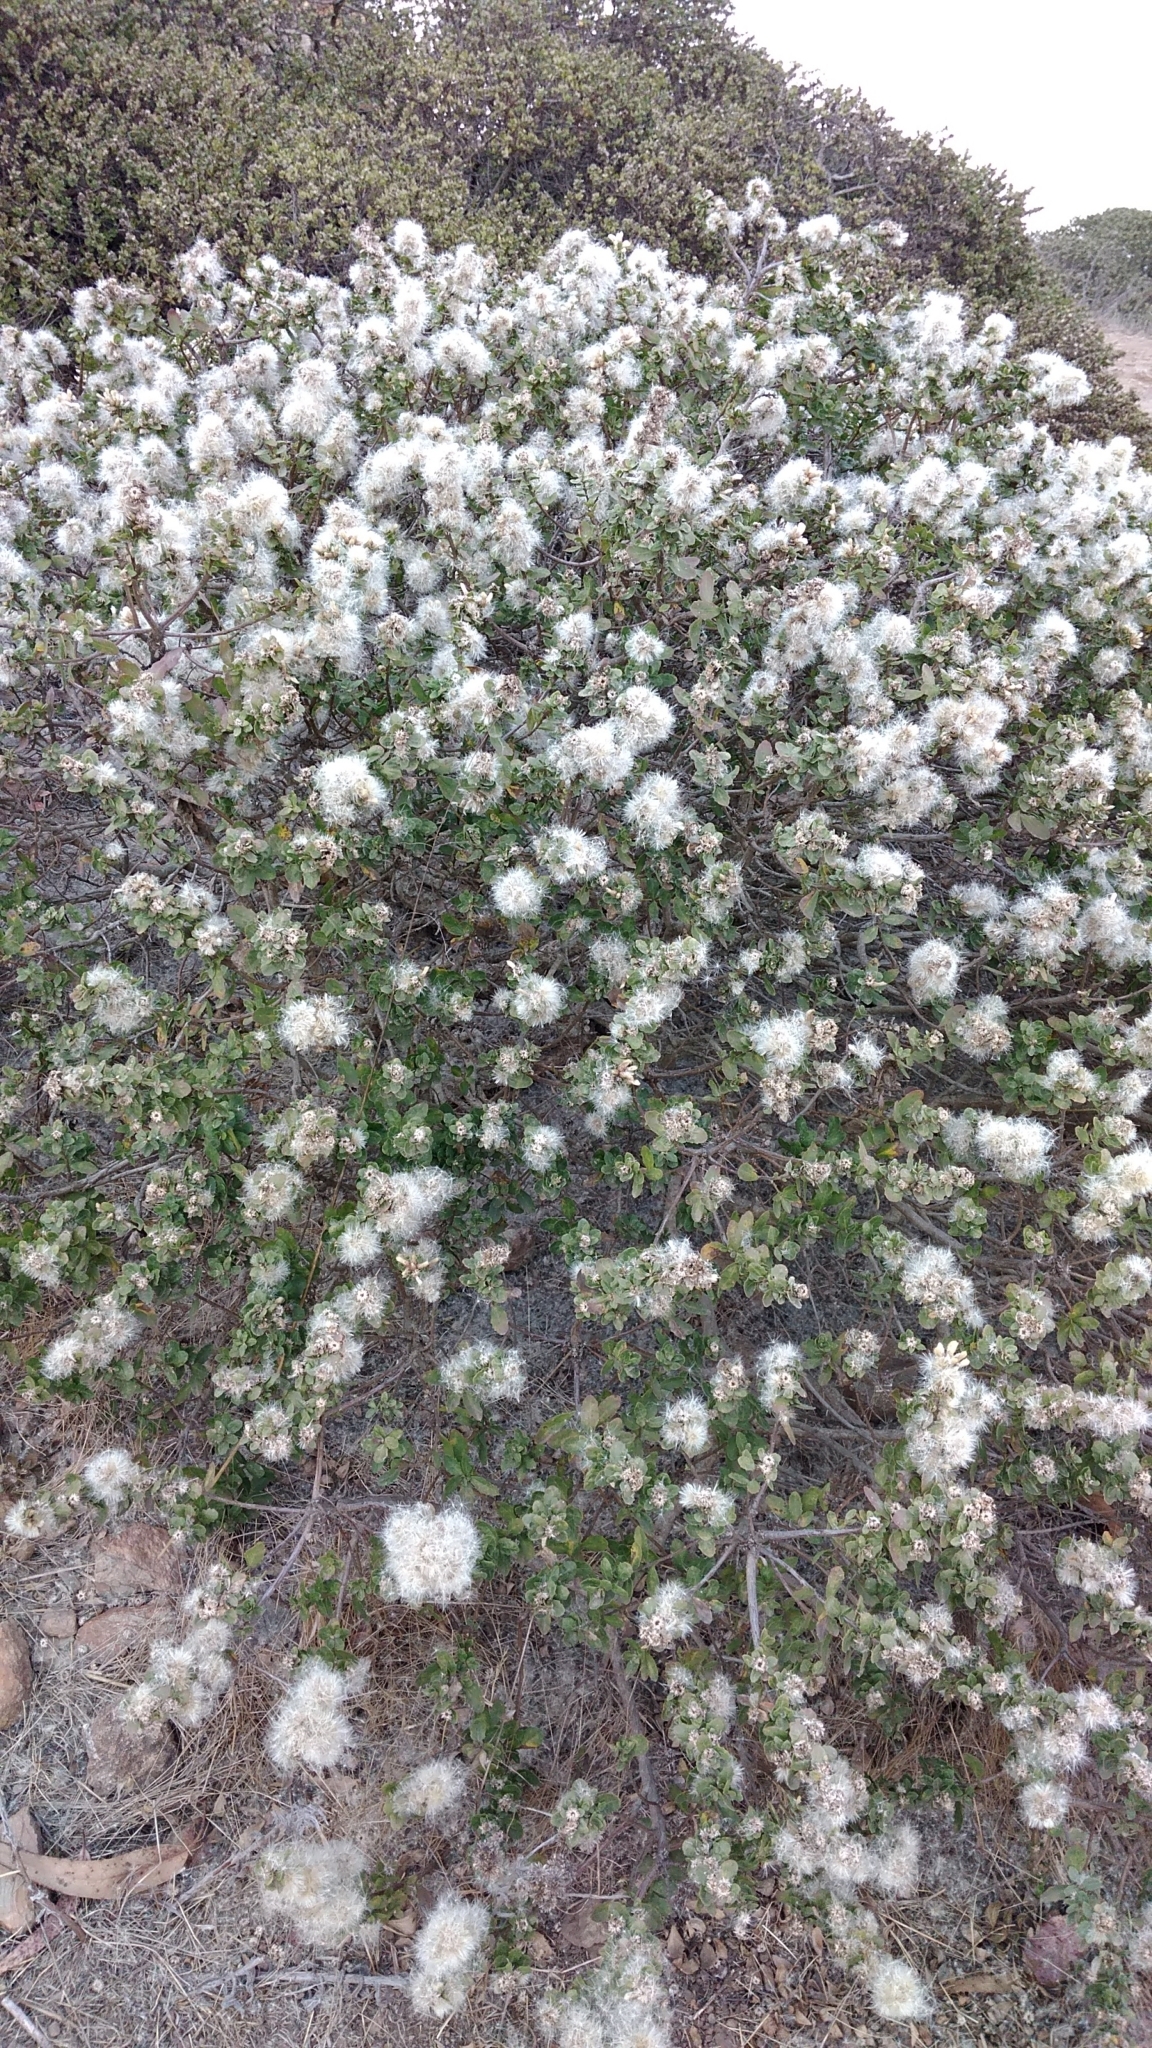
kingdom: Plantae
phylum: Tracheophyta
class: Magnoliopsida
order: Asterales
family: Asteraceae
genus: Baccharis
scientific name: Baccharis pilularis
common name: Coyotebrush
